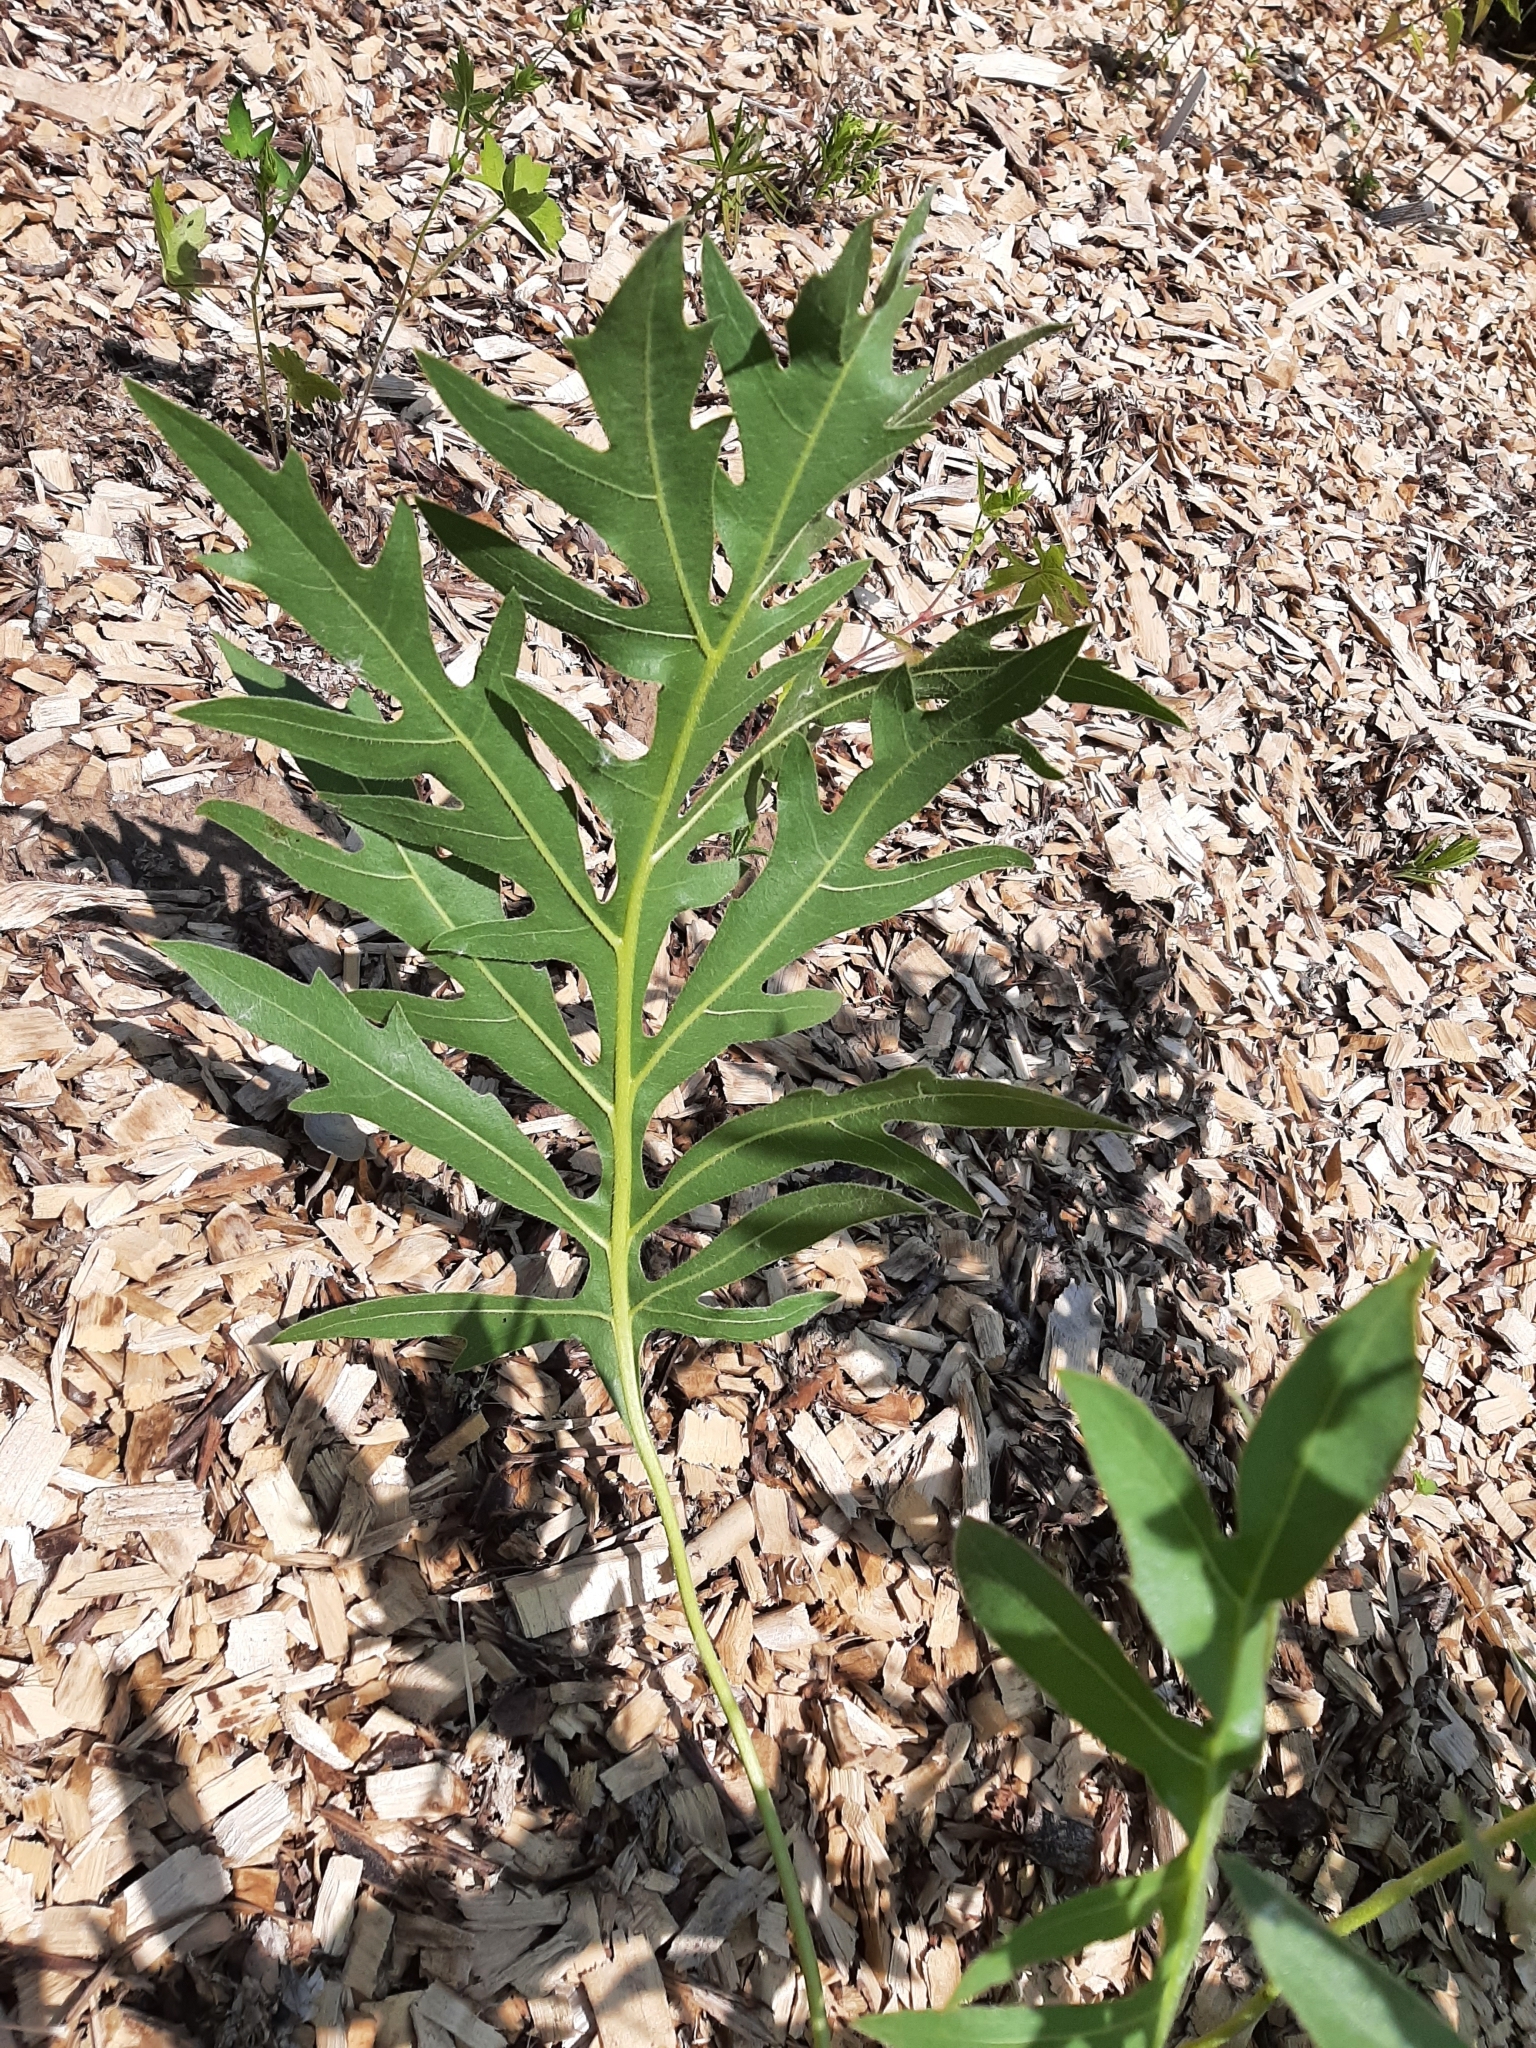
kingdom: Plantae
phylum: Tracheophyta
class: Magnoliopsida
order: Asterales
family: Asteraceae
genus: Silphium
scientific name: Silphium laciniatum
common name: Polarplant
